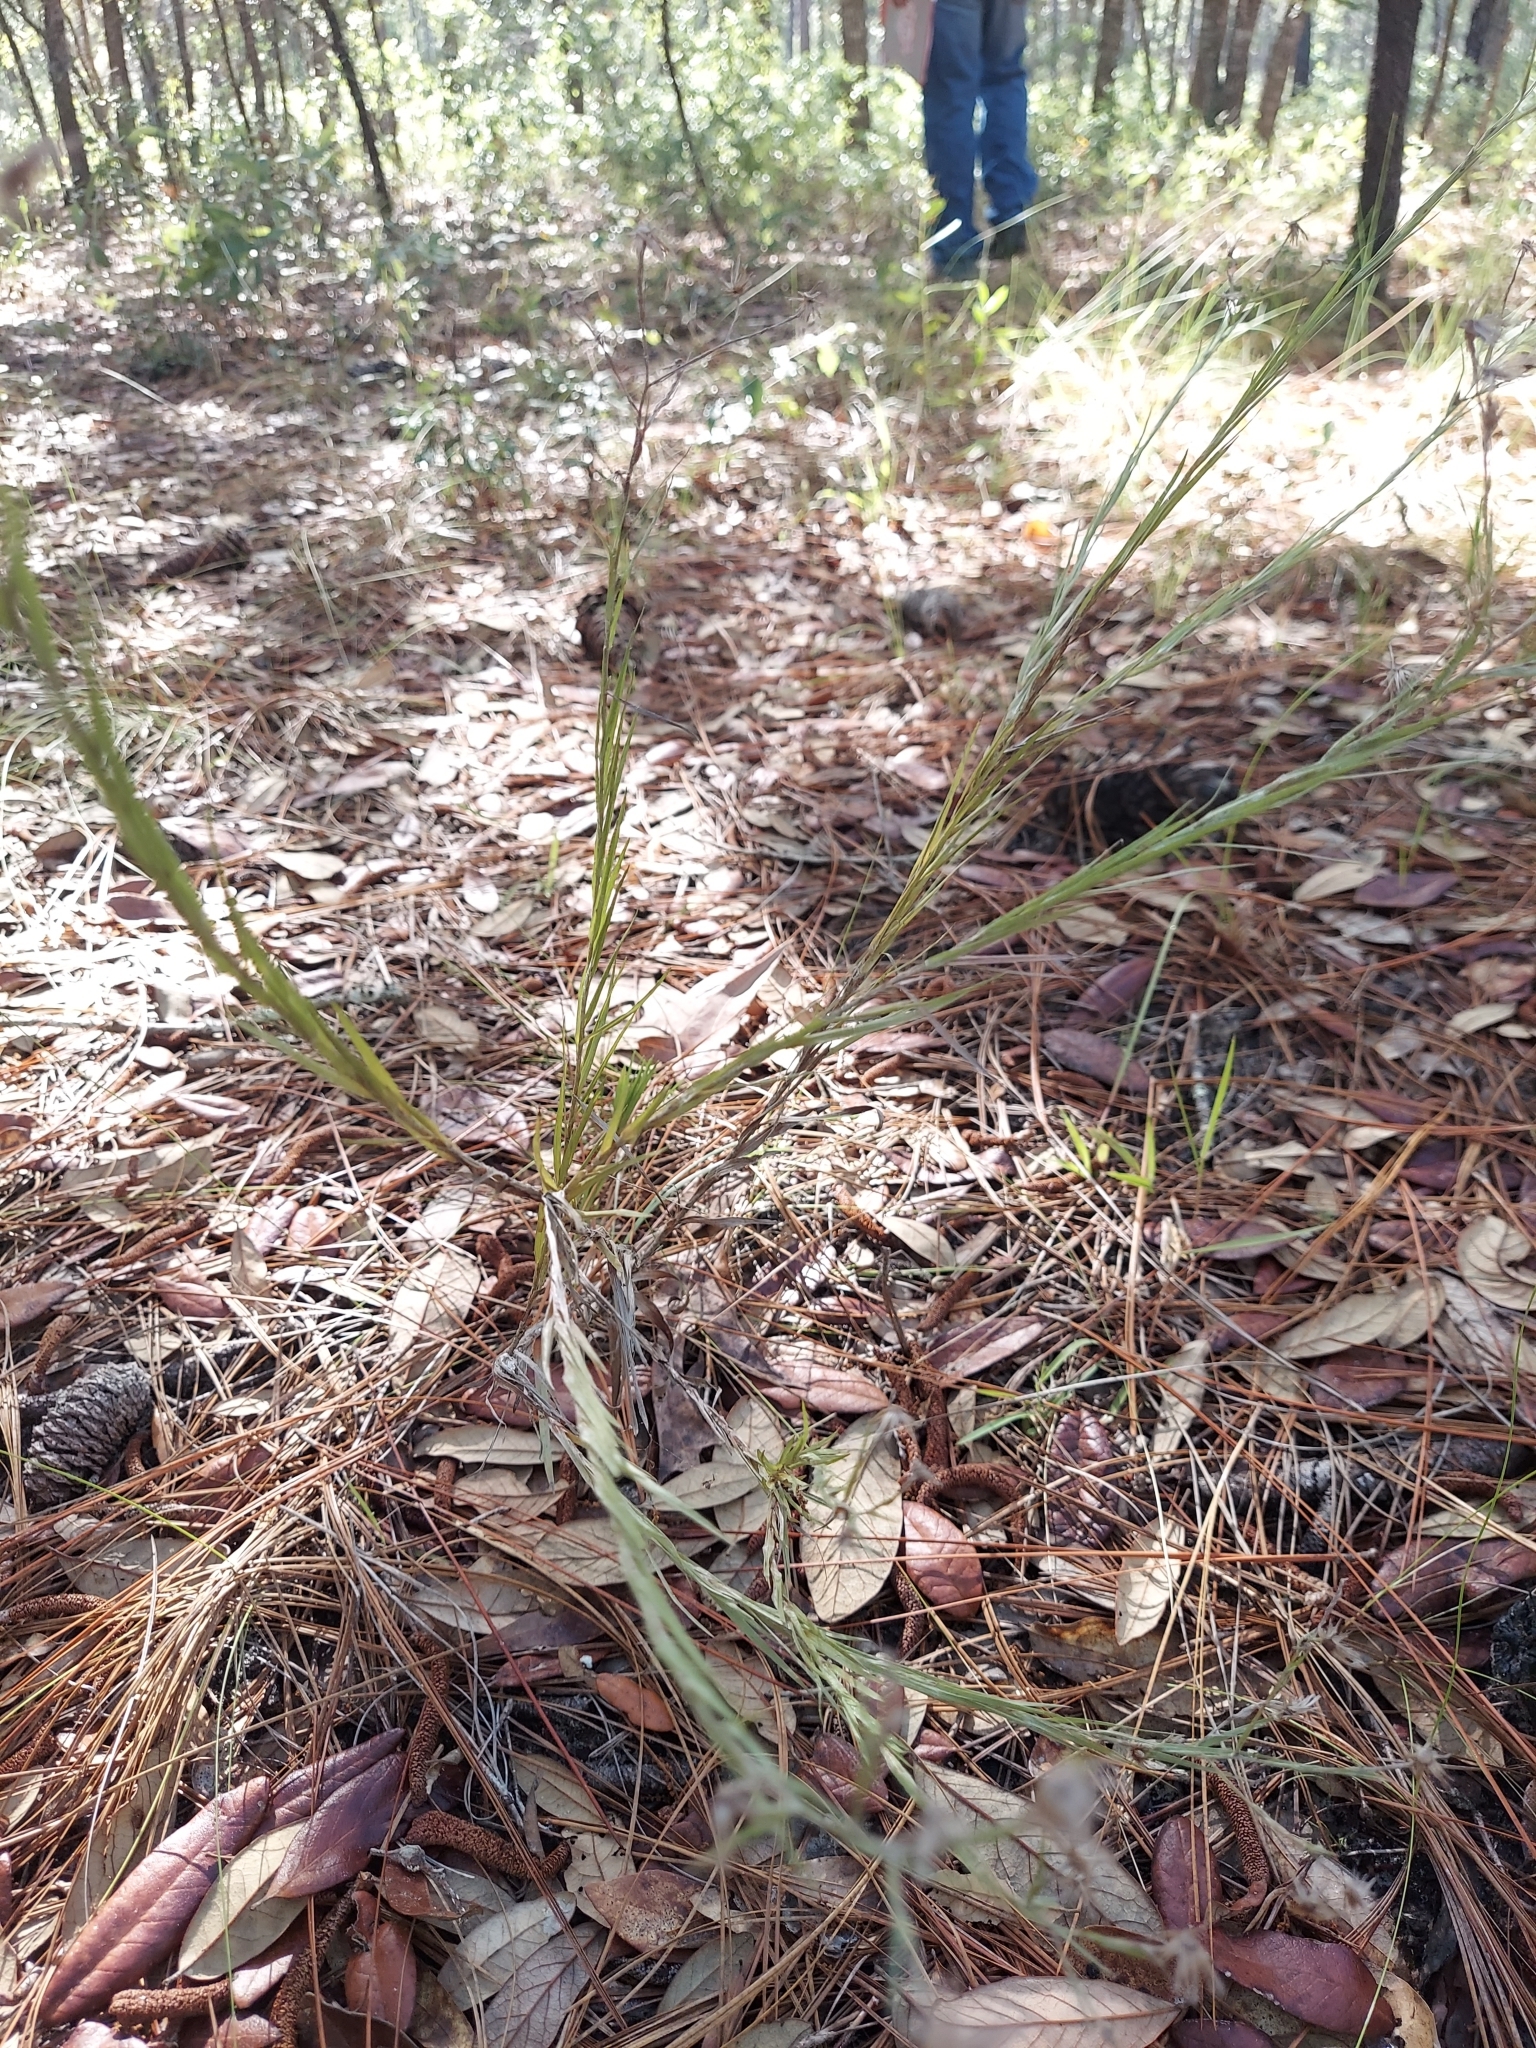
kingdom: Plantae
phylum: Tracheophyta
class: Magnoliopsida
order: Asterales
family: Asteraceae
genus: Pityopsis
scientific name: Pityopsis graminifolia
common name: Grass-leaf golden-aster
